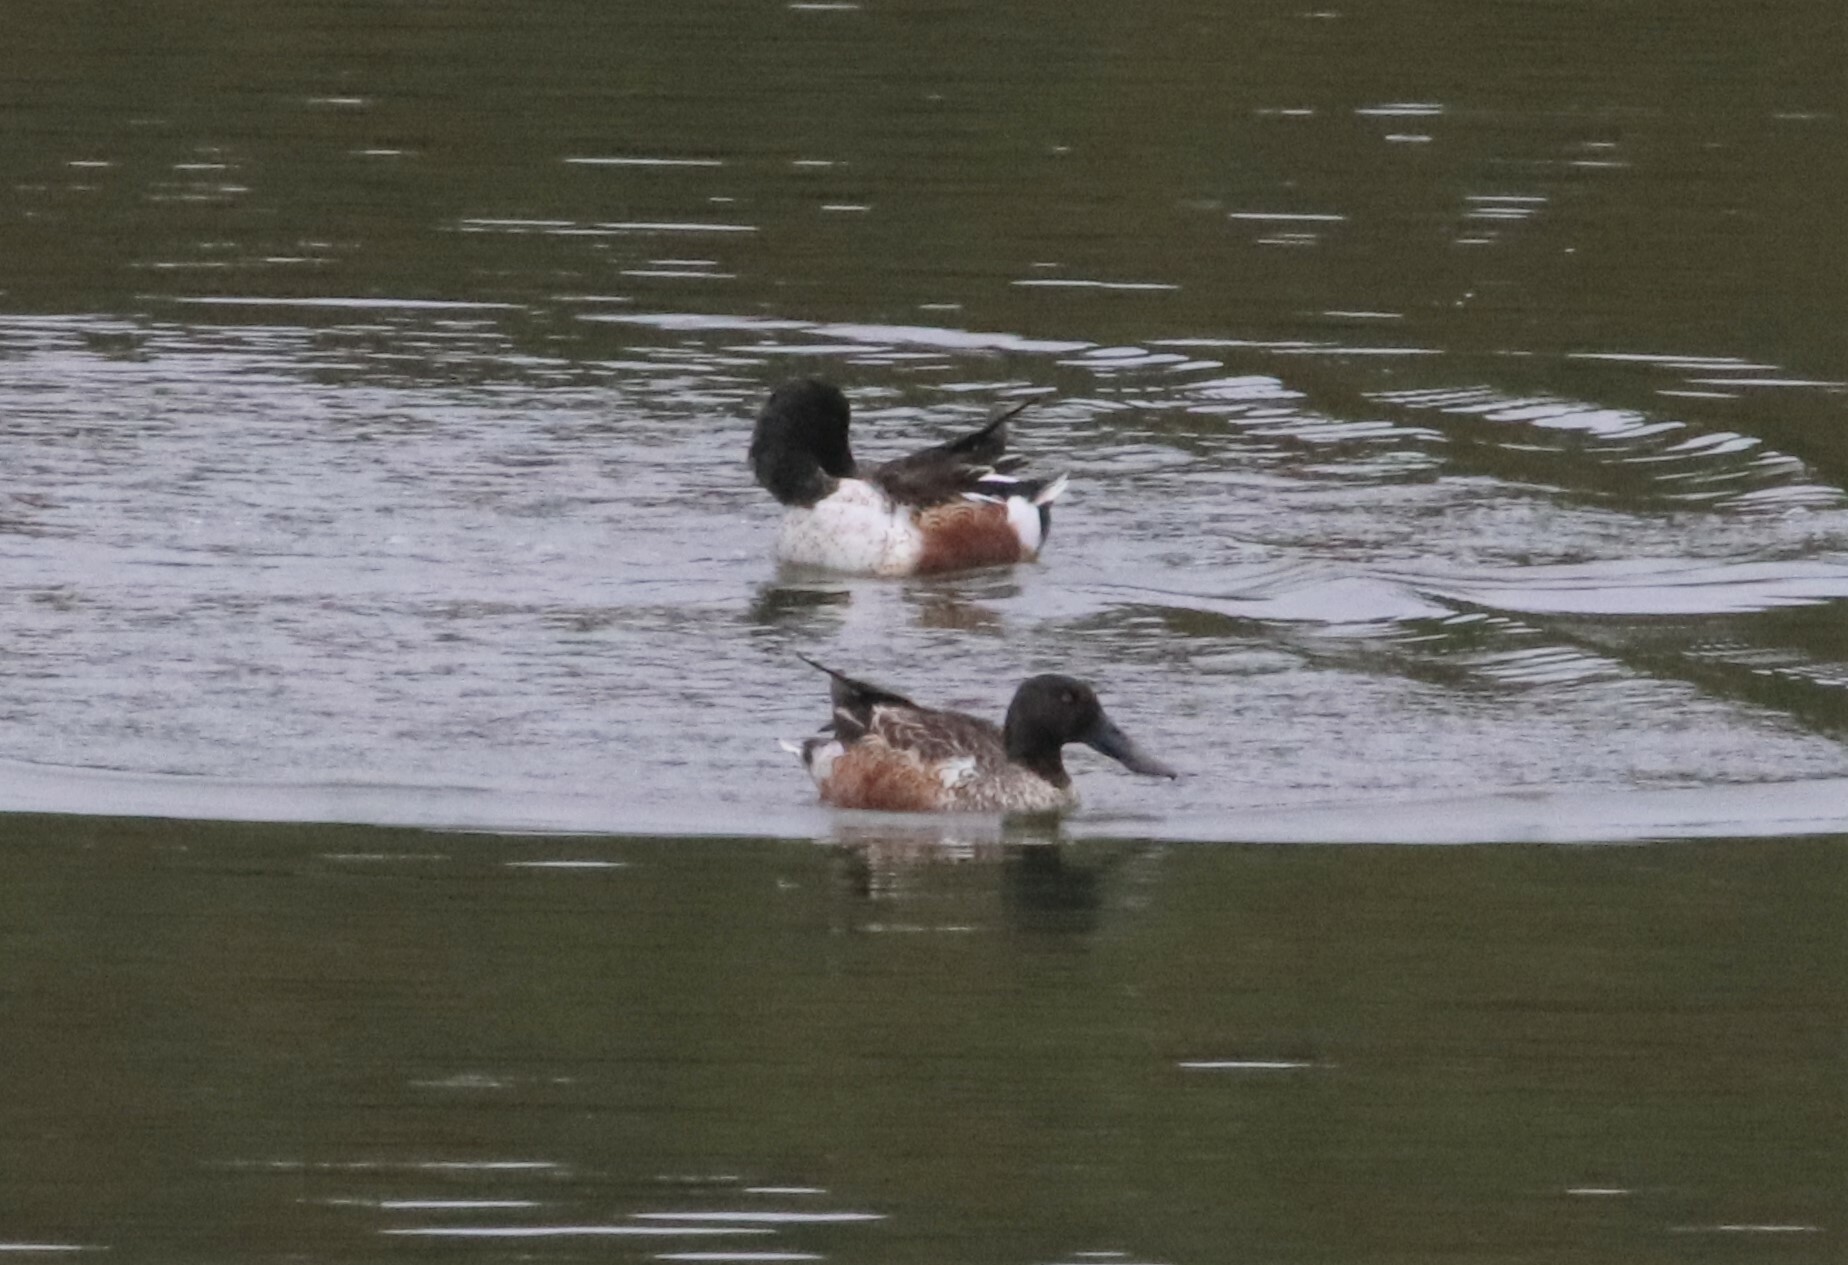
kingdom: Animalia
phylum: Chordata
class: Aves
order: Anseriformes
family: Anatidae
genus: Spatula
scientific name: Spatula clypeata
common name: Northern shoveler
